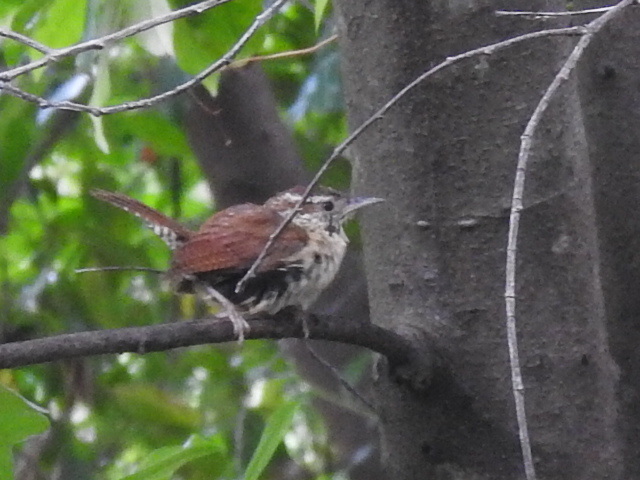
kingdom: Animalia
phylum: Chordata
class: Aves
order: Passeriformes
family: Troglodytidae
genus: Thryothorus
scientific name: Thryothorus ludovicianus
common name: Carolina wren
